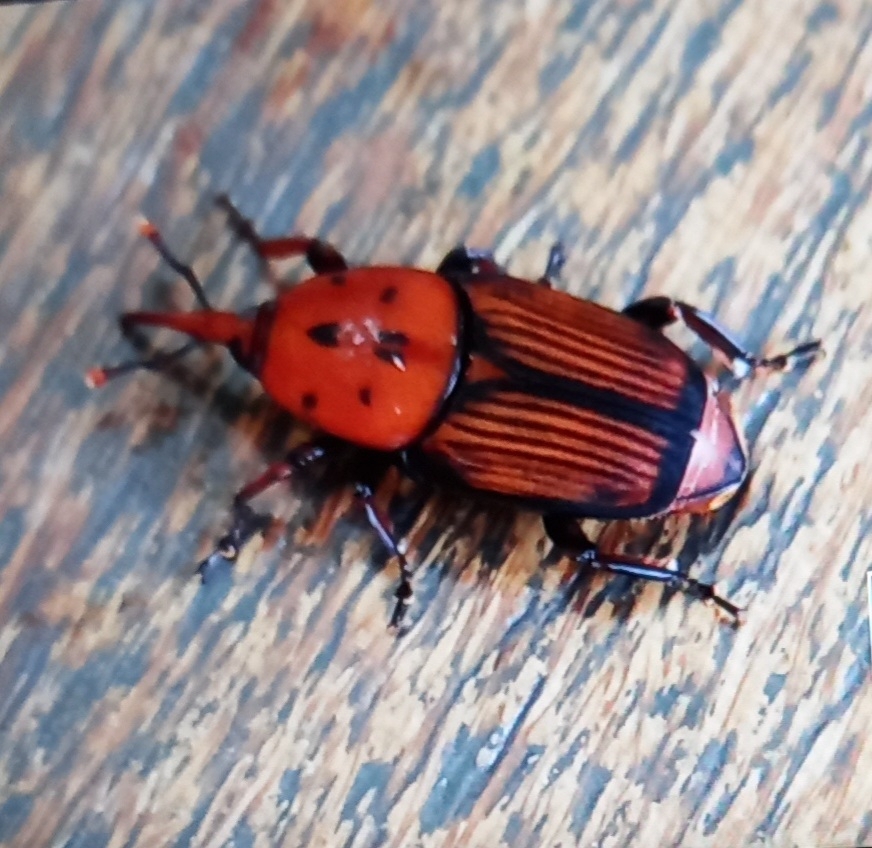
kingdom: Animalia
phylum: Arthropoda
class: Insecta
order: Coleoptera
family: Dryophthoridae
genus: Rhynchophorus
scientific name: Rhynchophorus ferrugineus
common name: Red palm weevil
